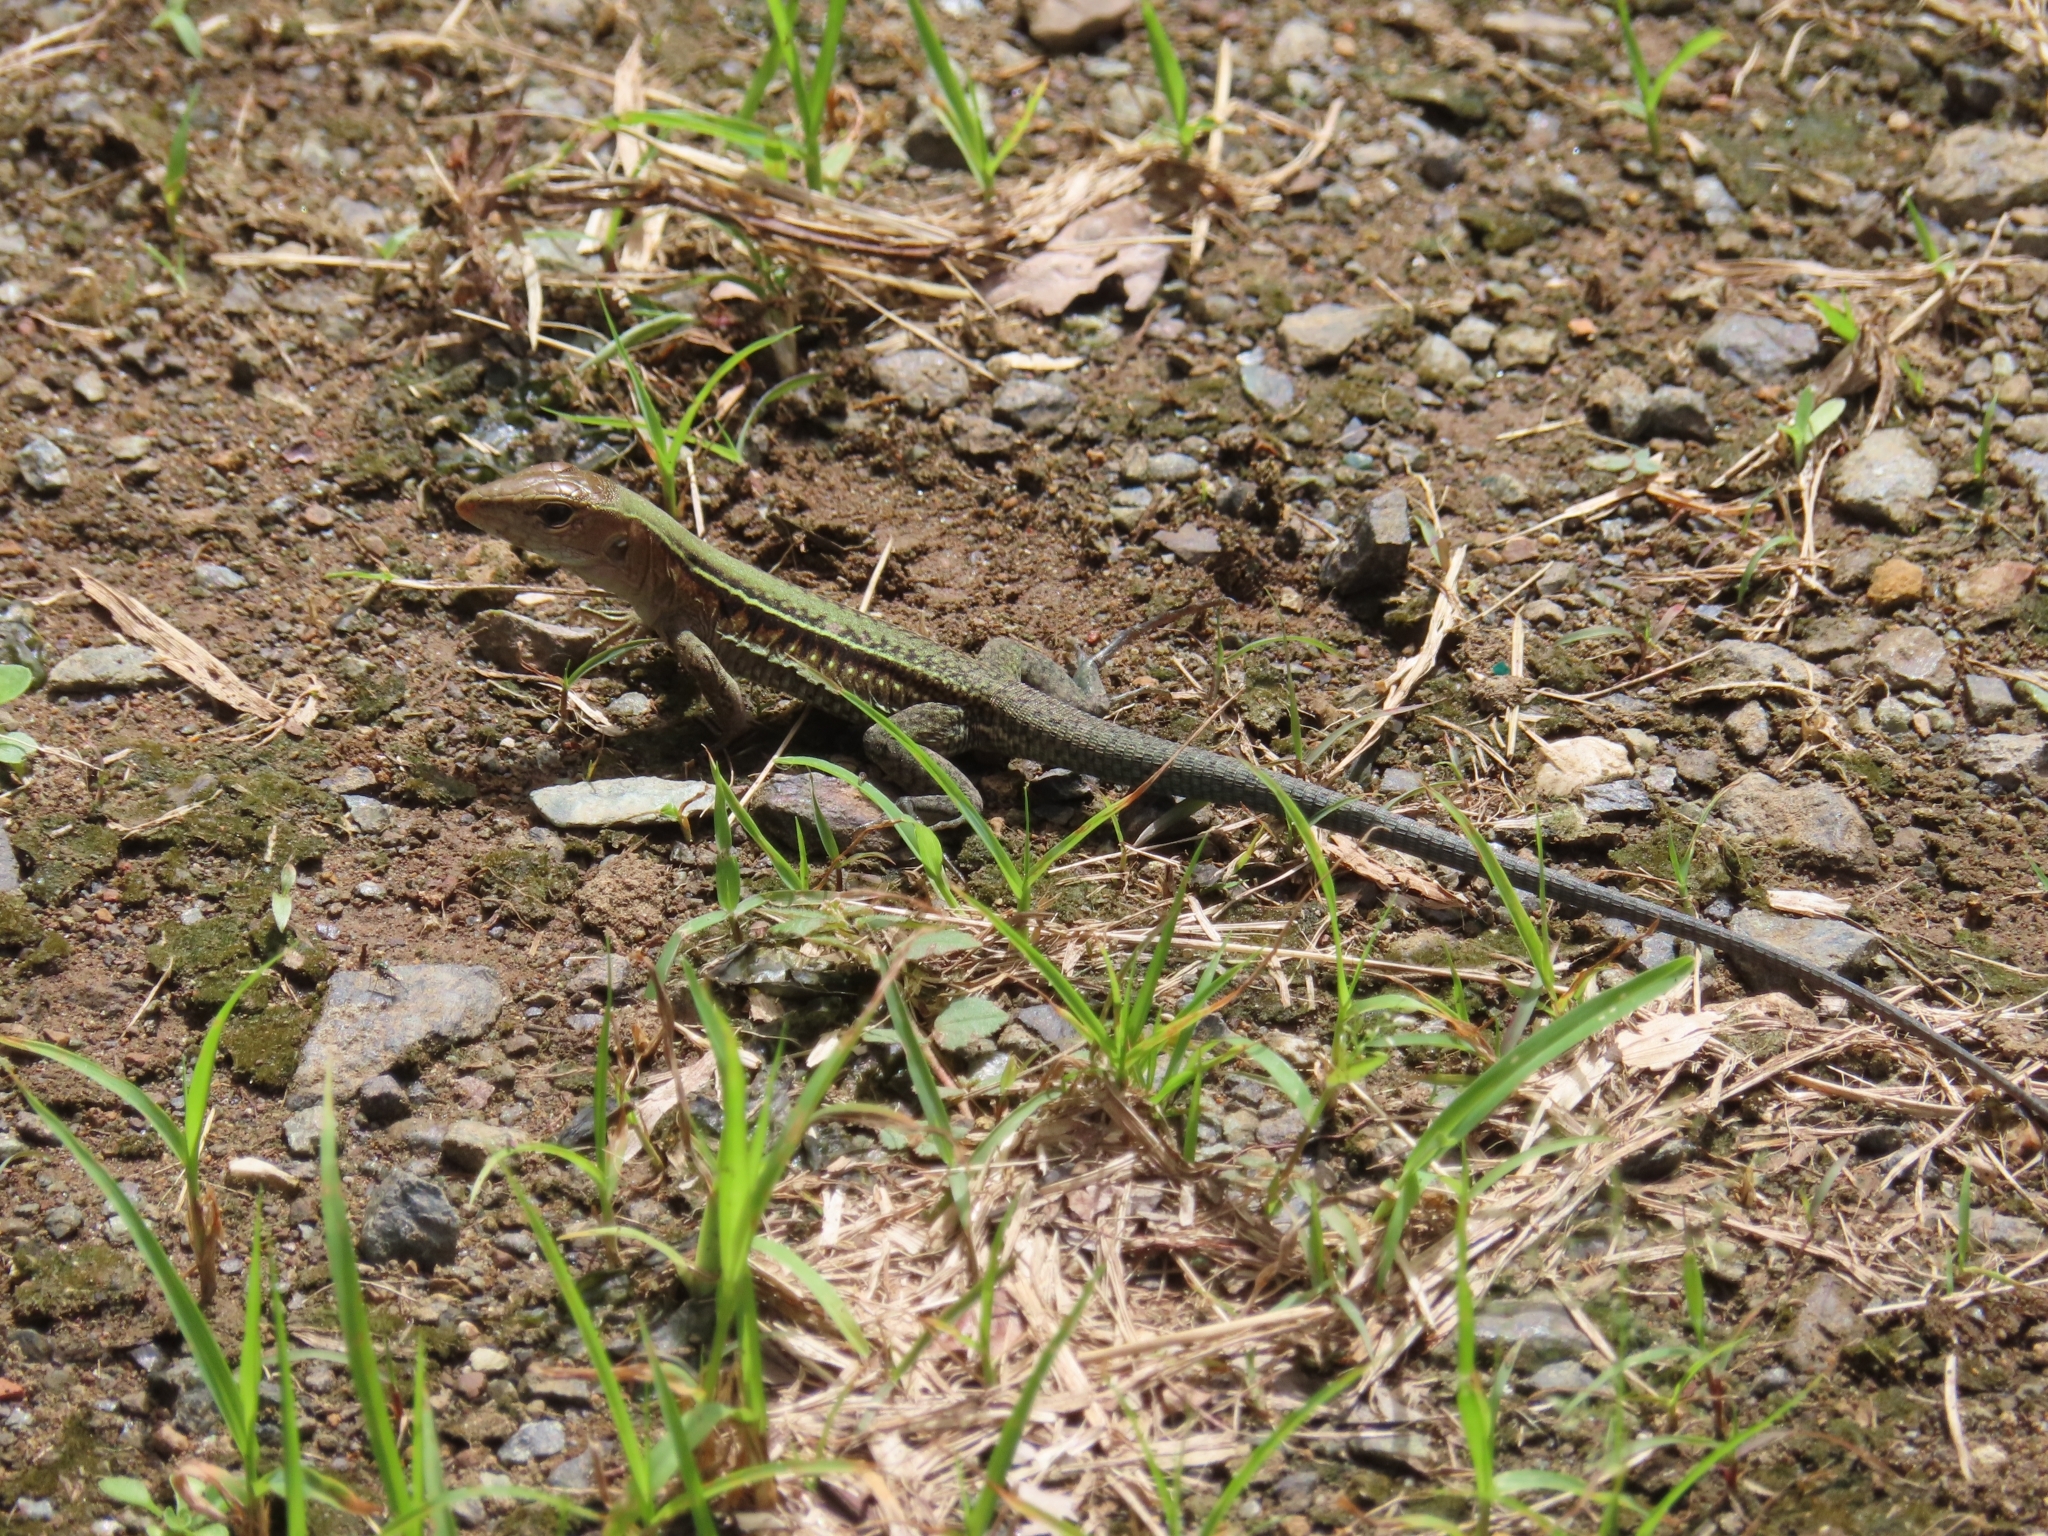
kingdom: Animalia
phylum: Chordata
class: Squamata
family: Teiidae
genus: Pholidoscelis
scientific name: Pholidoscelis exsul
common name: Common puerto rican ameiva
